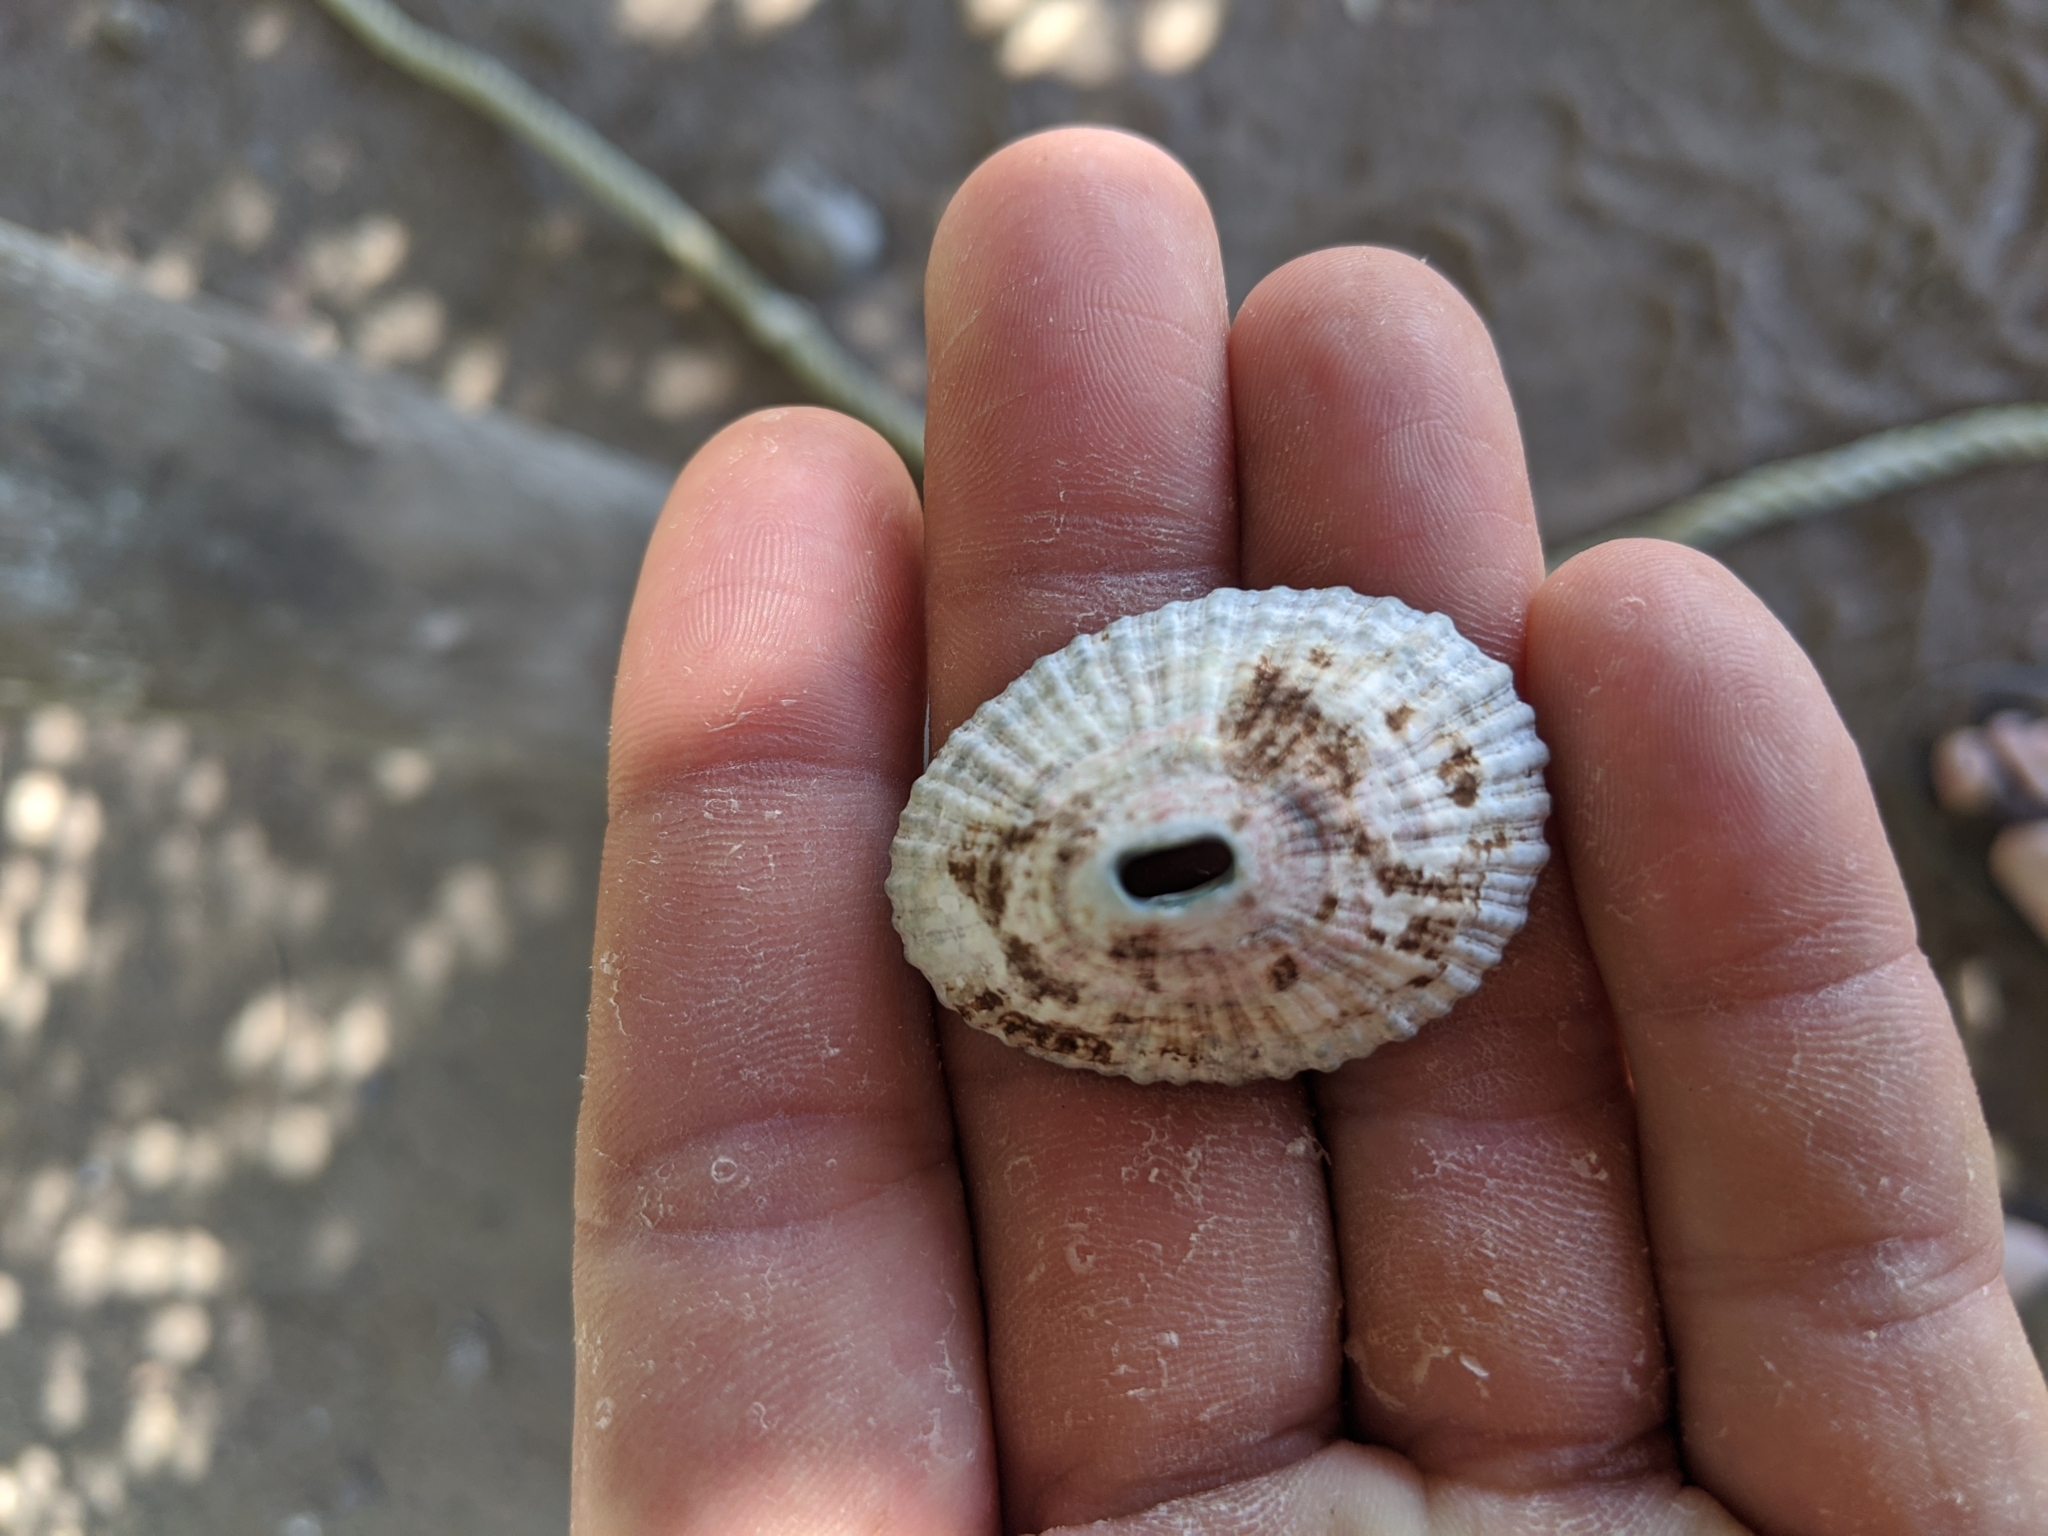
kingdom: Animalia
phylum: Mollusca
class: Gastropoda
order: Lepetellida
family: Fissurellidae
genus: Fissurella
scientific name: Fissurella virescens
